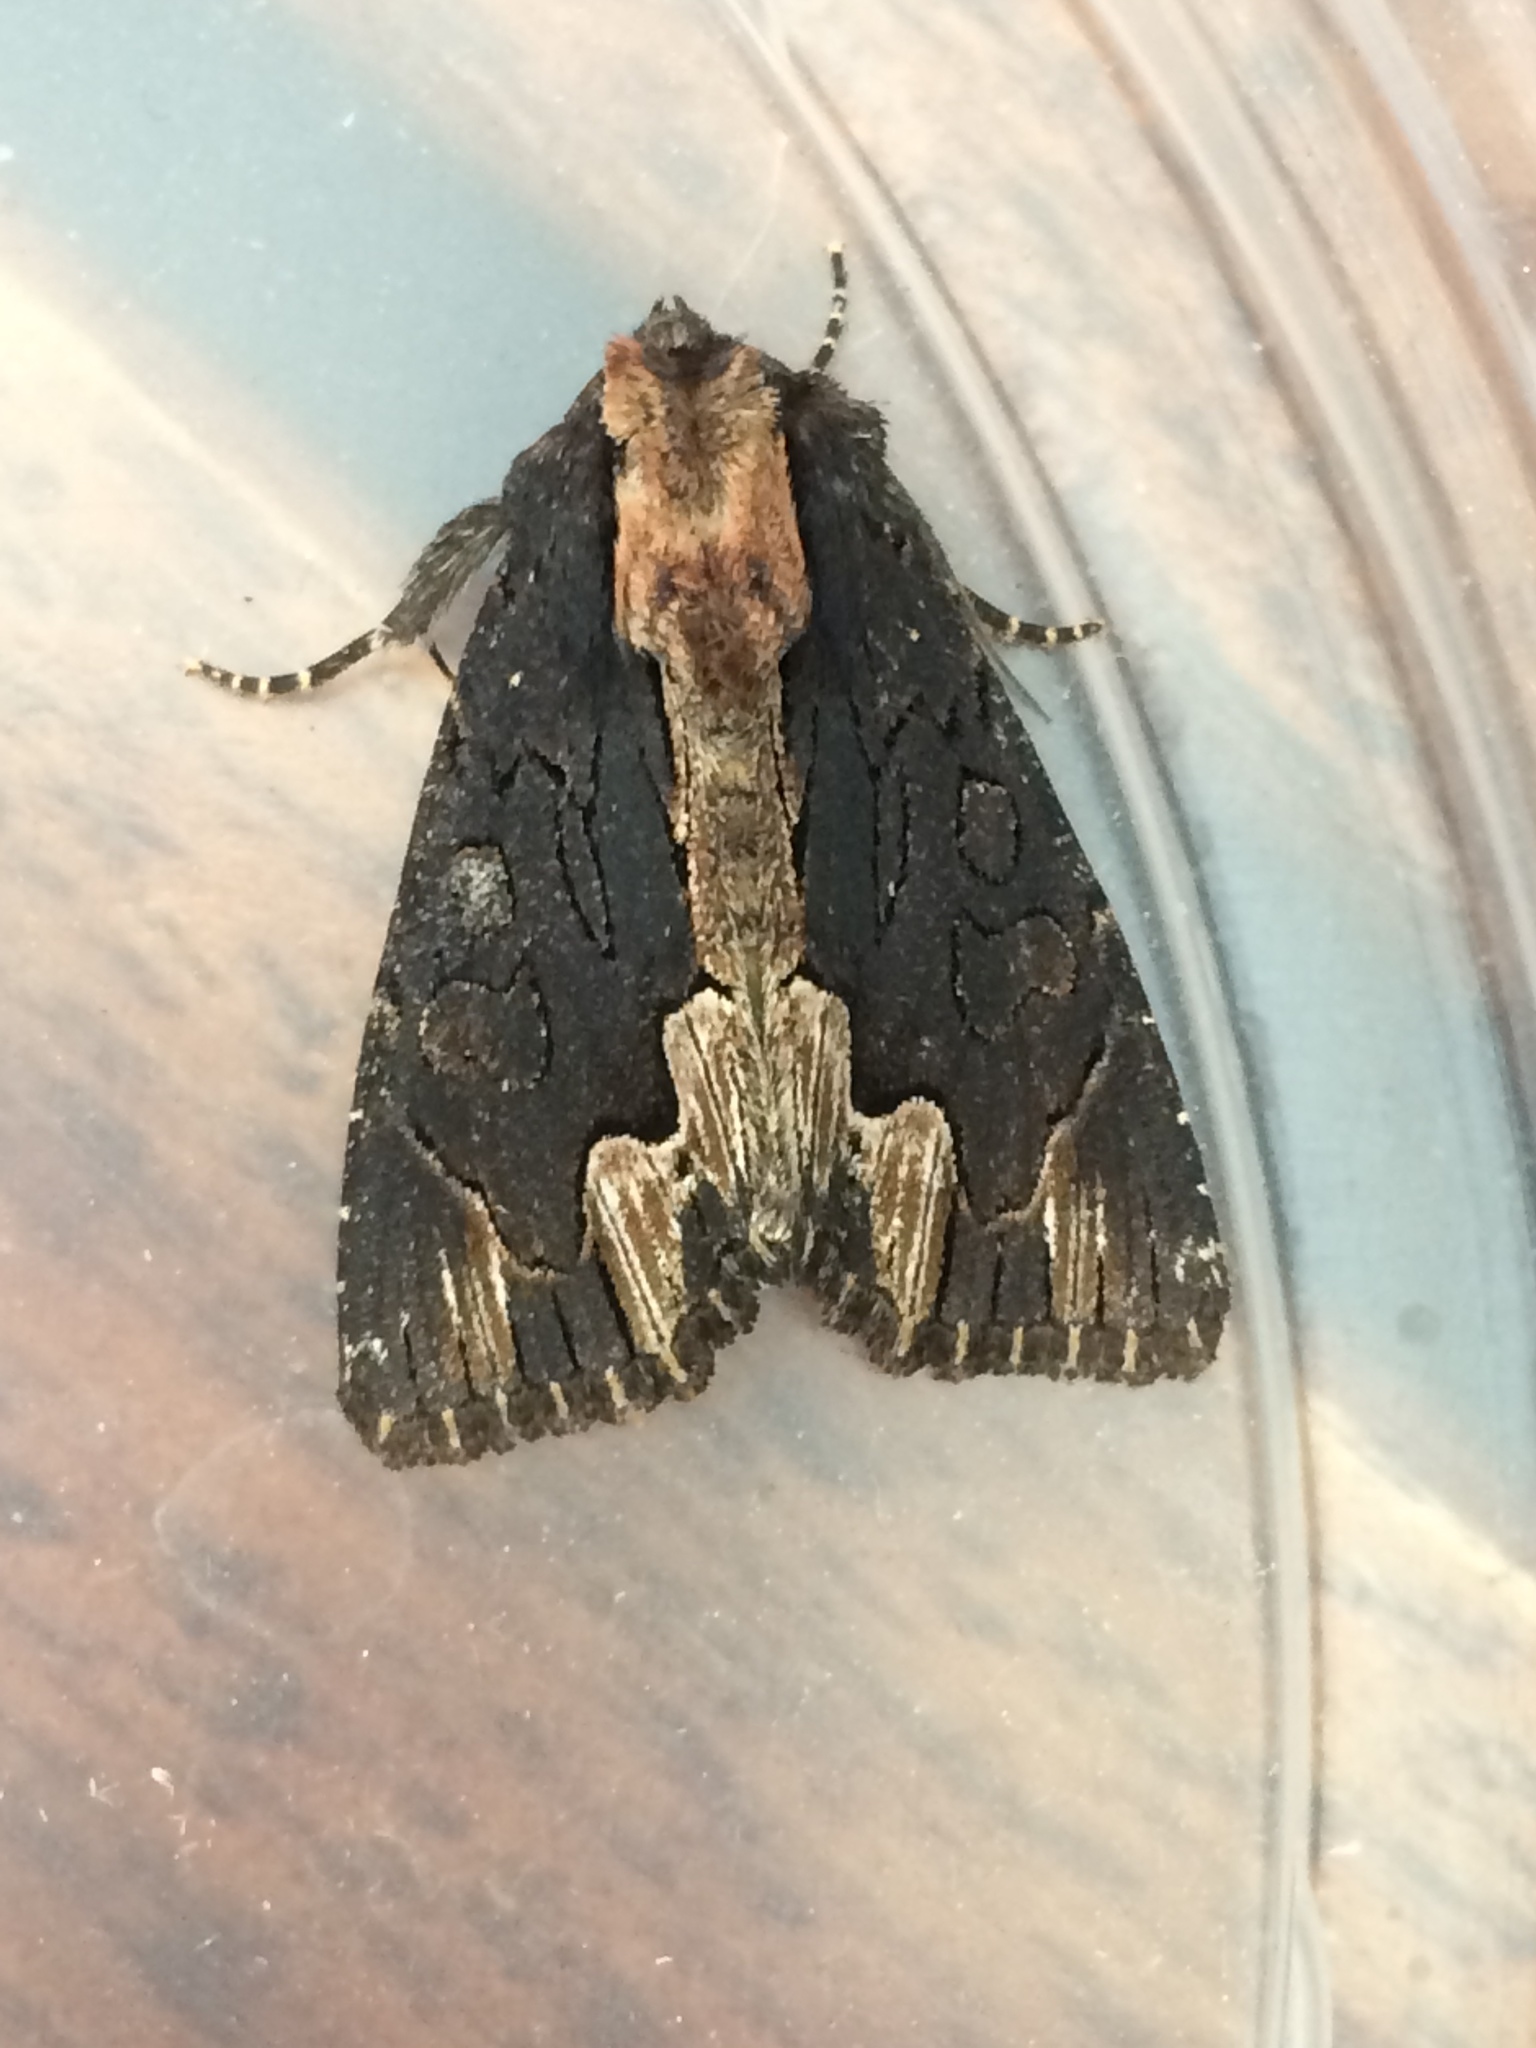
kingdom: Animalia
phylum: Arthropoda
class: Insecta
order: Lepidoptera
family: Noctuidae
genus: Dypterygia
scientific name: Dypterygia scabriuscula
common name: Bird's wing
